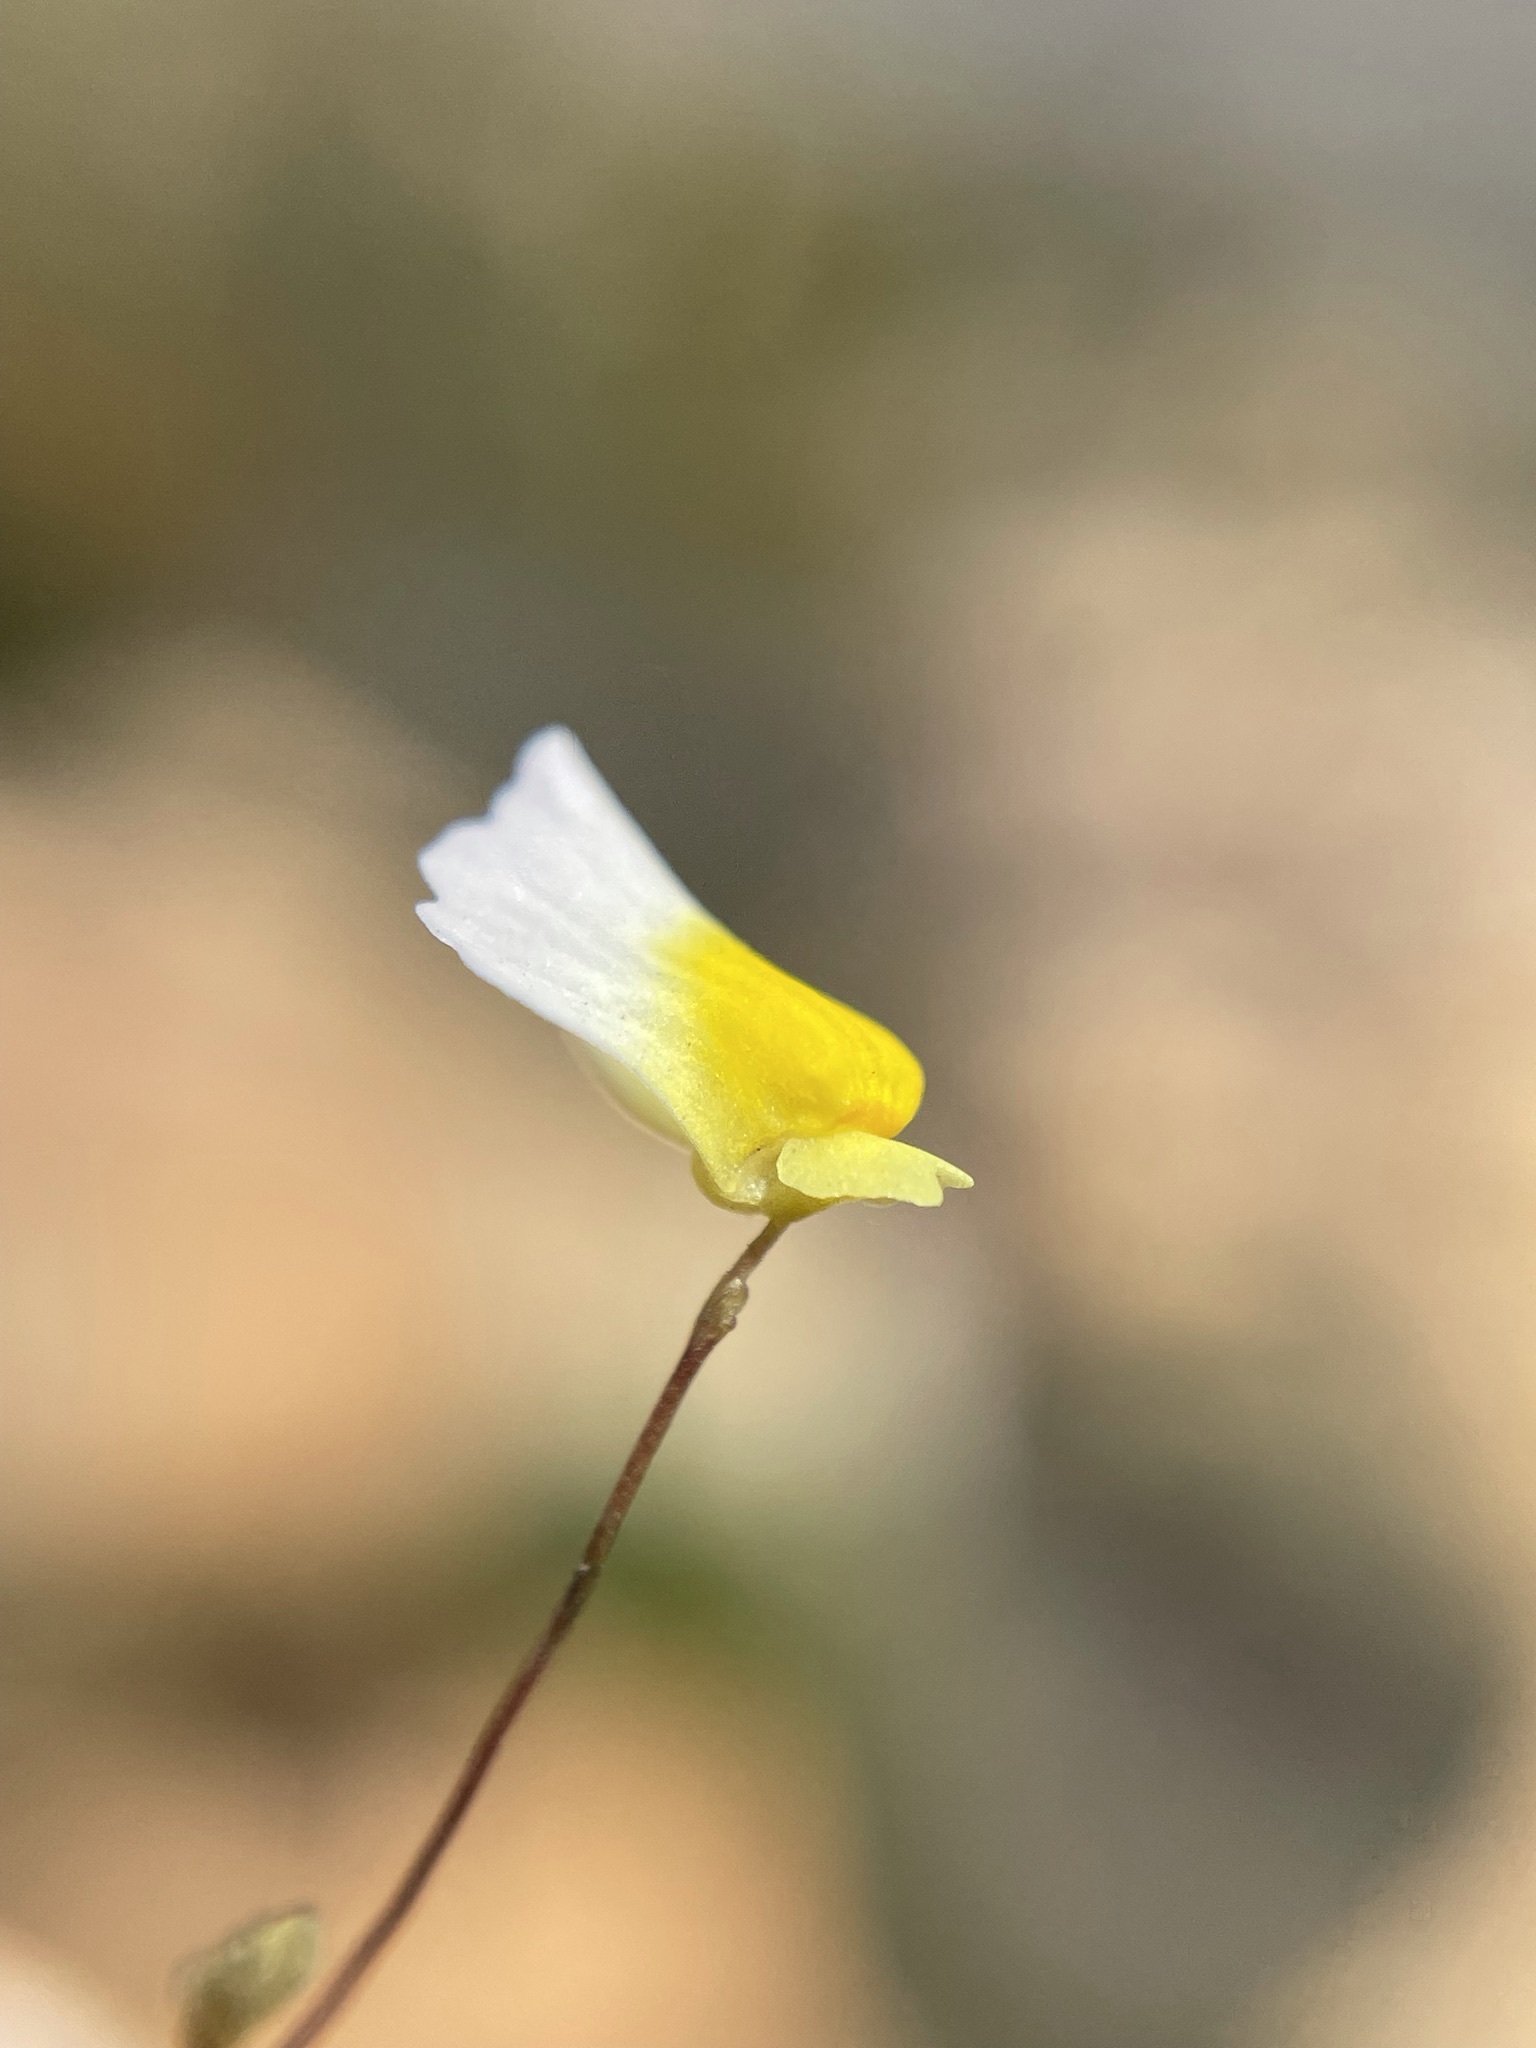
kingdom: Plantae
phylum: Tracheophyta
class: Magnoliopsida
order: Lamiales
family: Lentibulariaceae
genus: Utricularia
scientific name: Utricularia bisquamata
